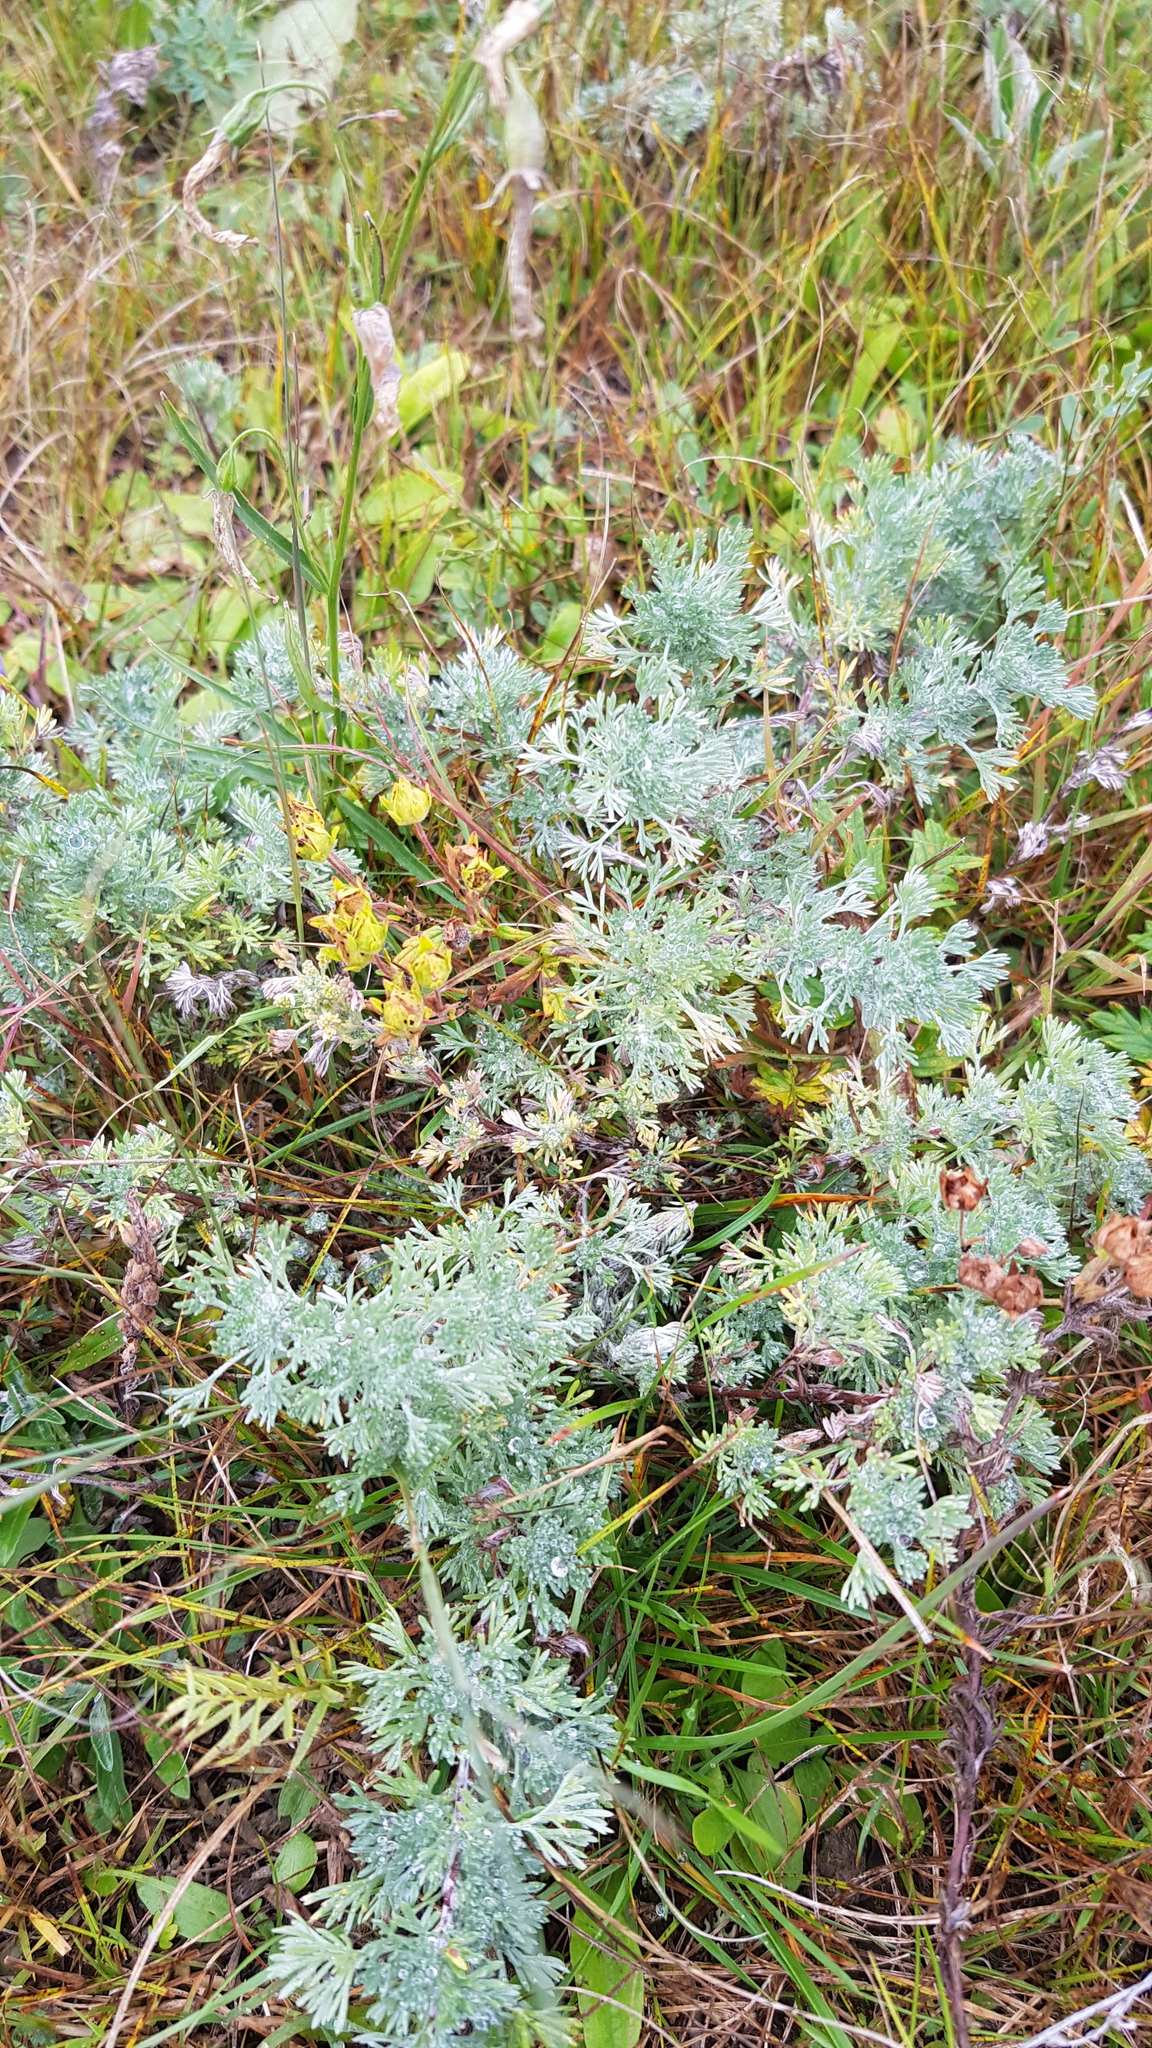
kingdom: Plantae
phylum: Tracheophyta
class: Magnoliopsida
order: Asterales
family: Asteraceae
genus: Artemisia
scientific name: Artemisia frigida
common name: Prairie sagewort
